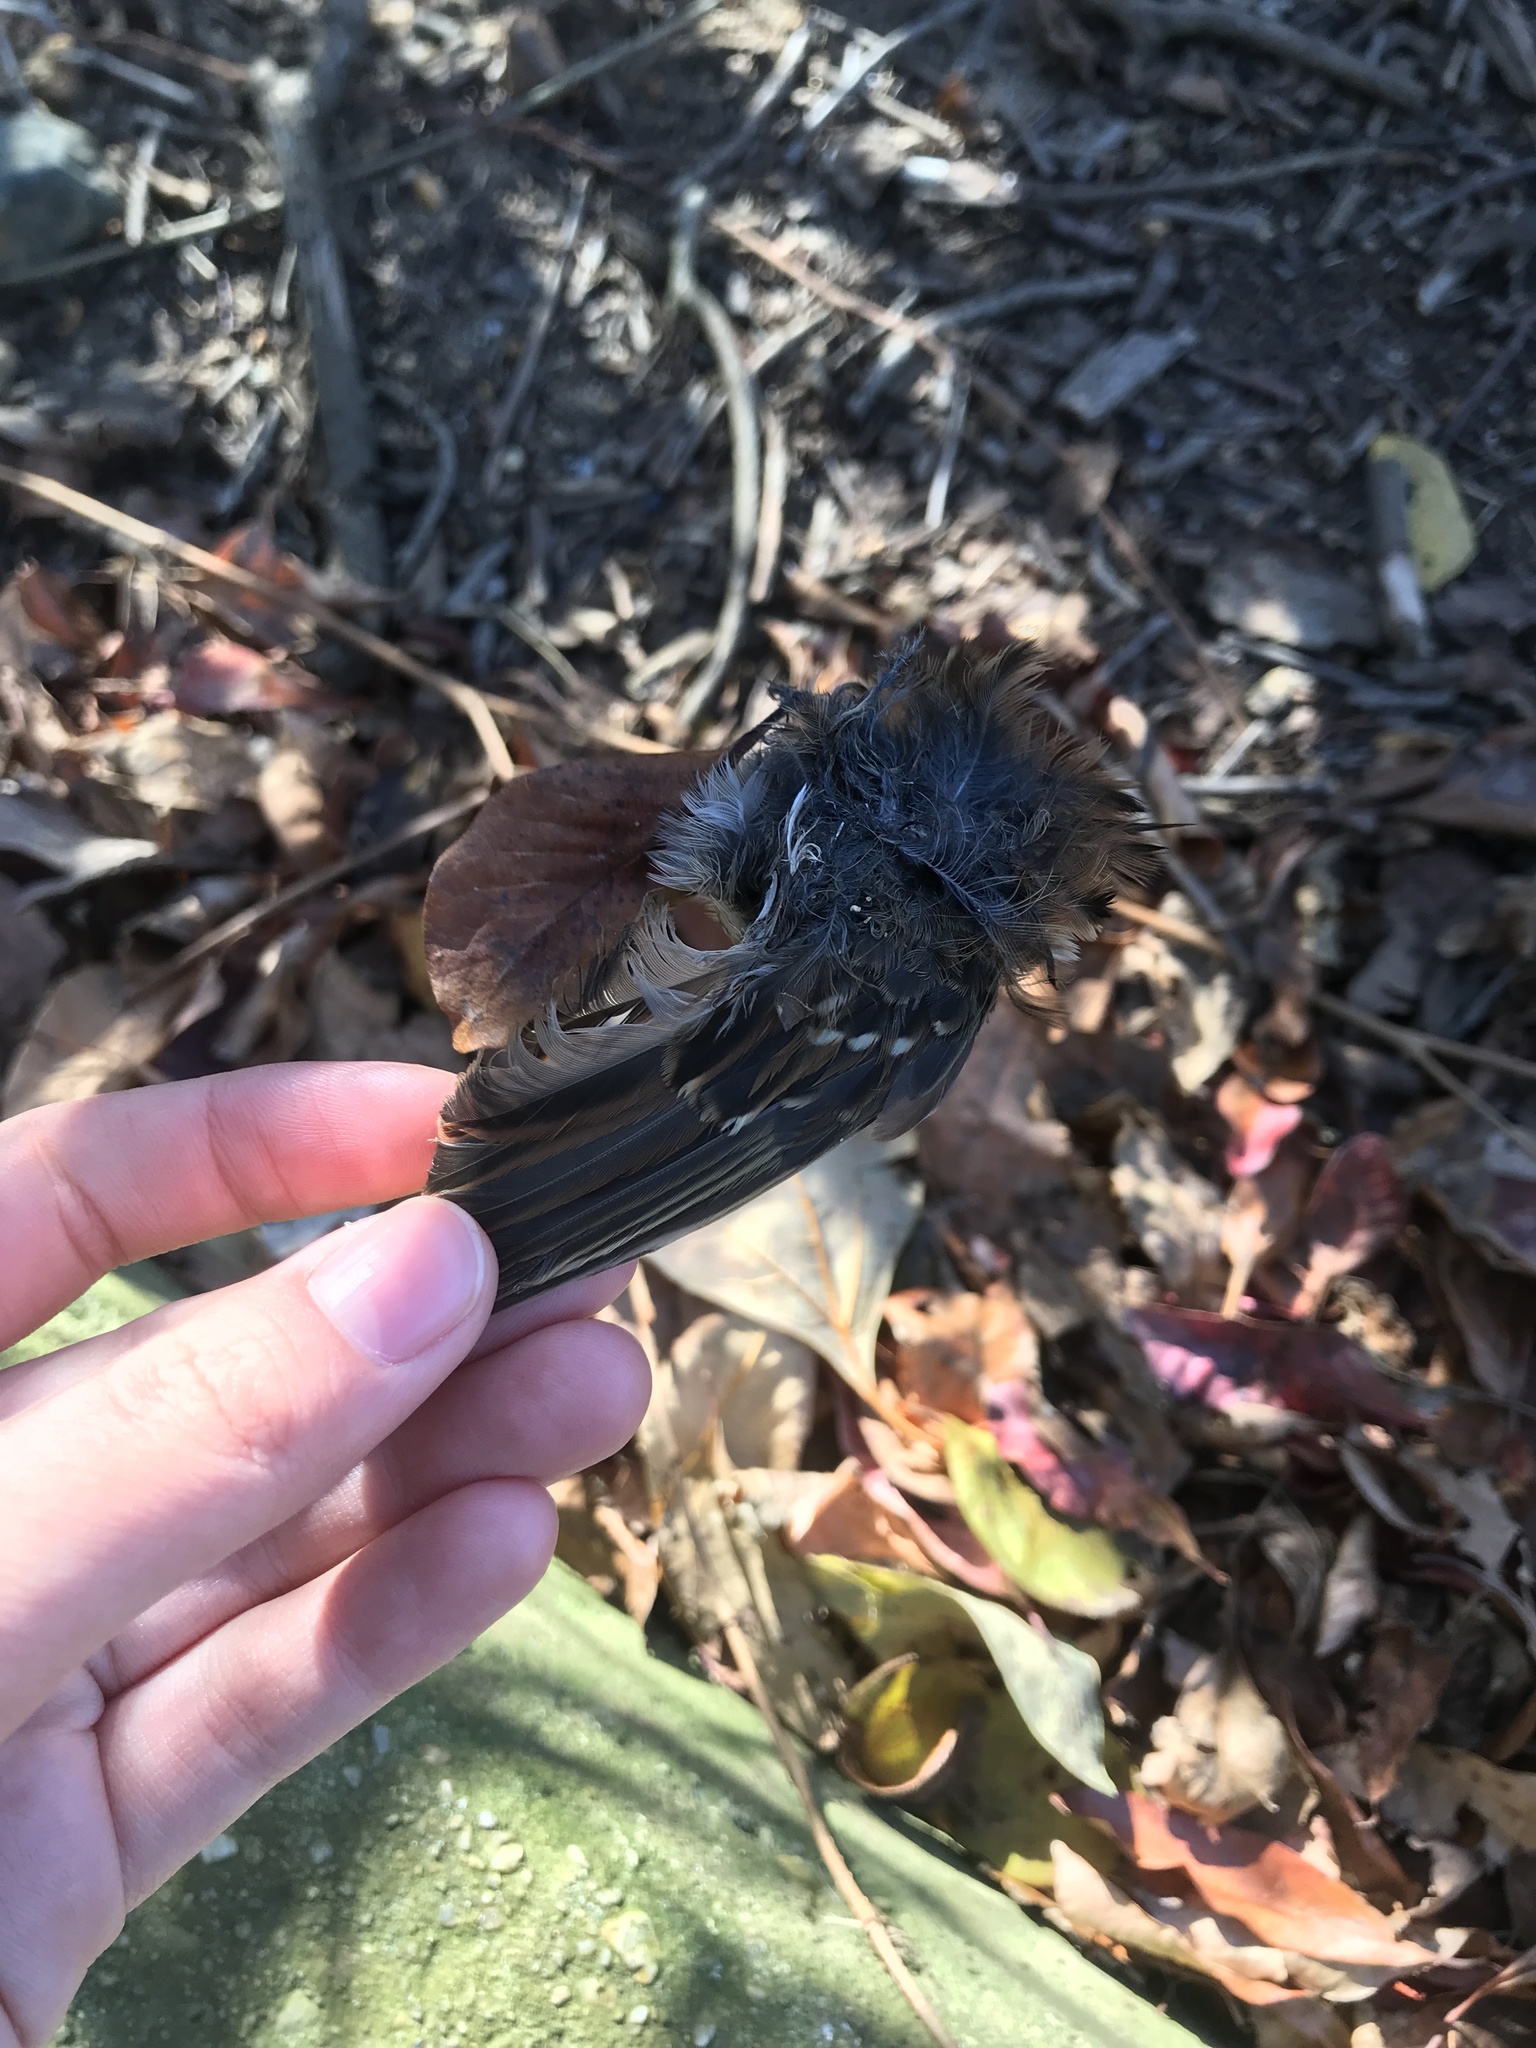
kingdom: Animalia
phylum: Chordata
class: Aves
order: Passeriformes
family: Passerellidae
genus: Zonotrichia
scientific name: Zonotrichia albicollis
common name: White-throated sparrow
